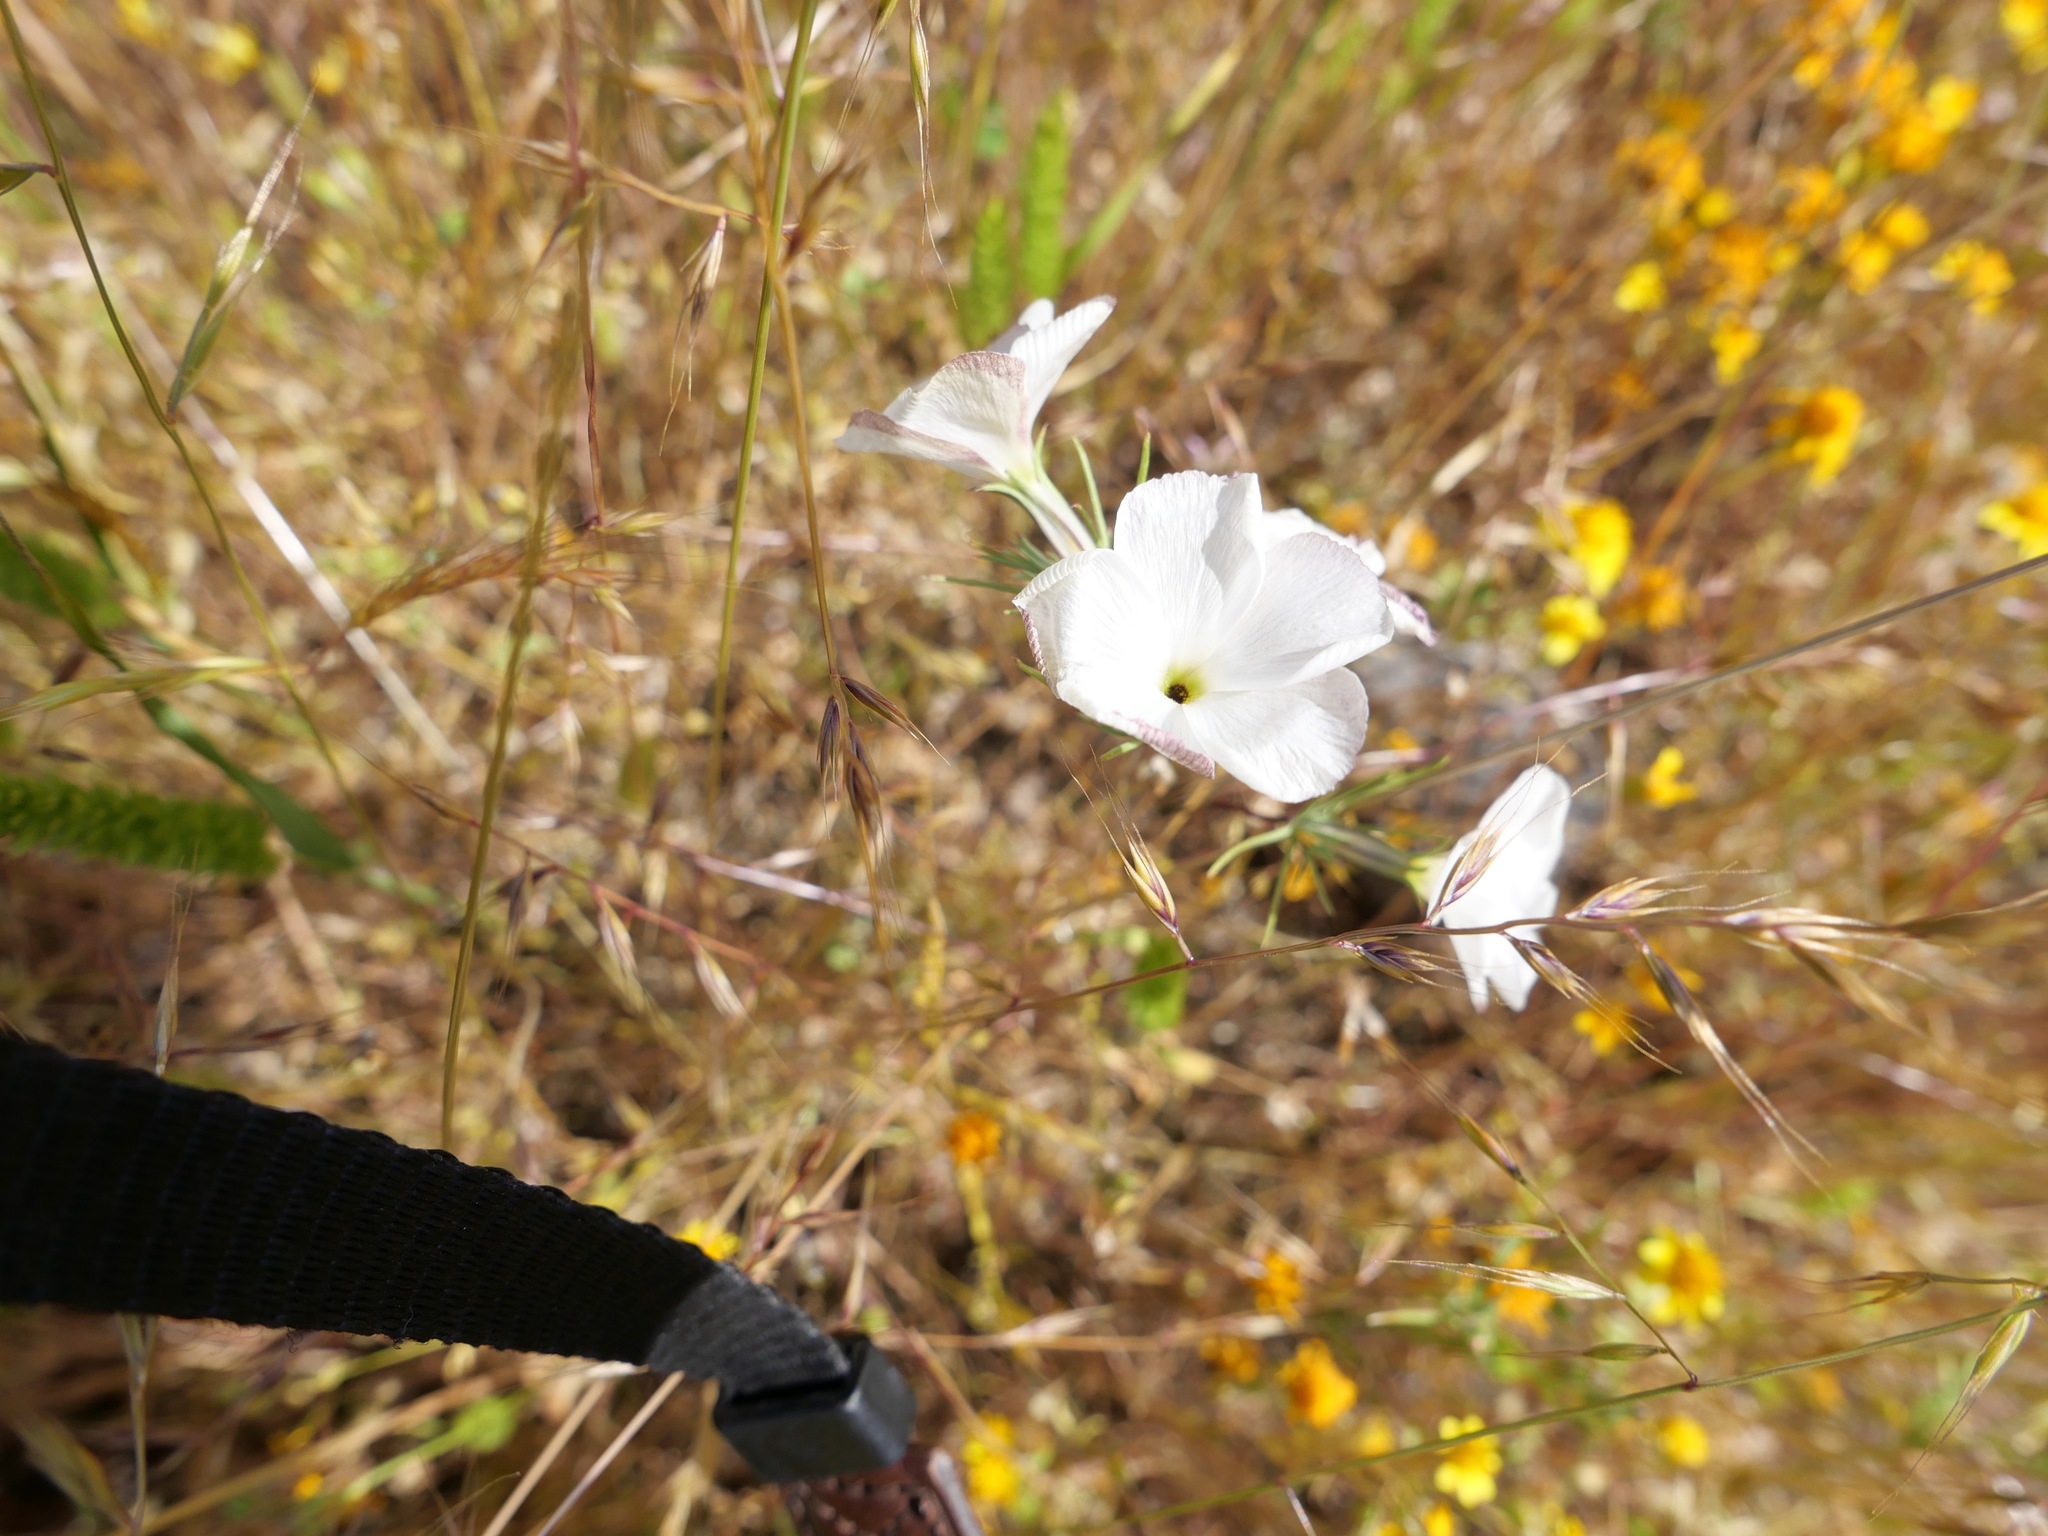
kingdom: Plantae
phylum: Tracheophyta
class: Magnoliopsida
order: Ericales
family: Polemoniaceae
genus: Linanthus
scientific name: Linanthus dichotomus
